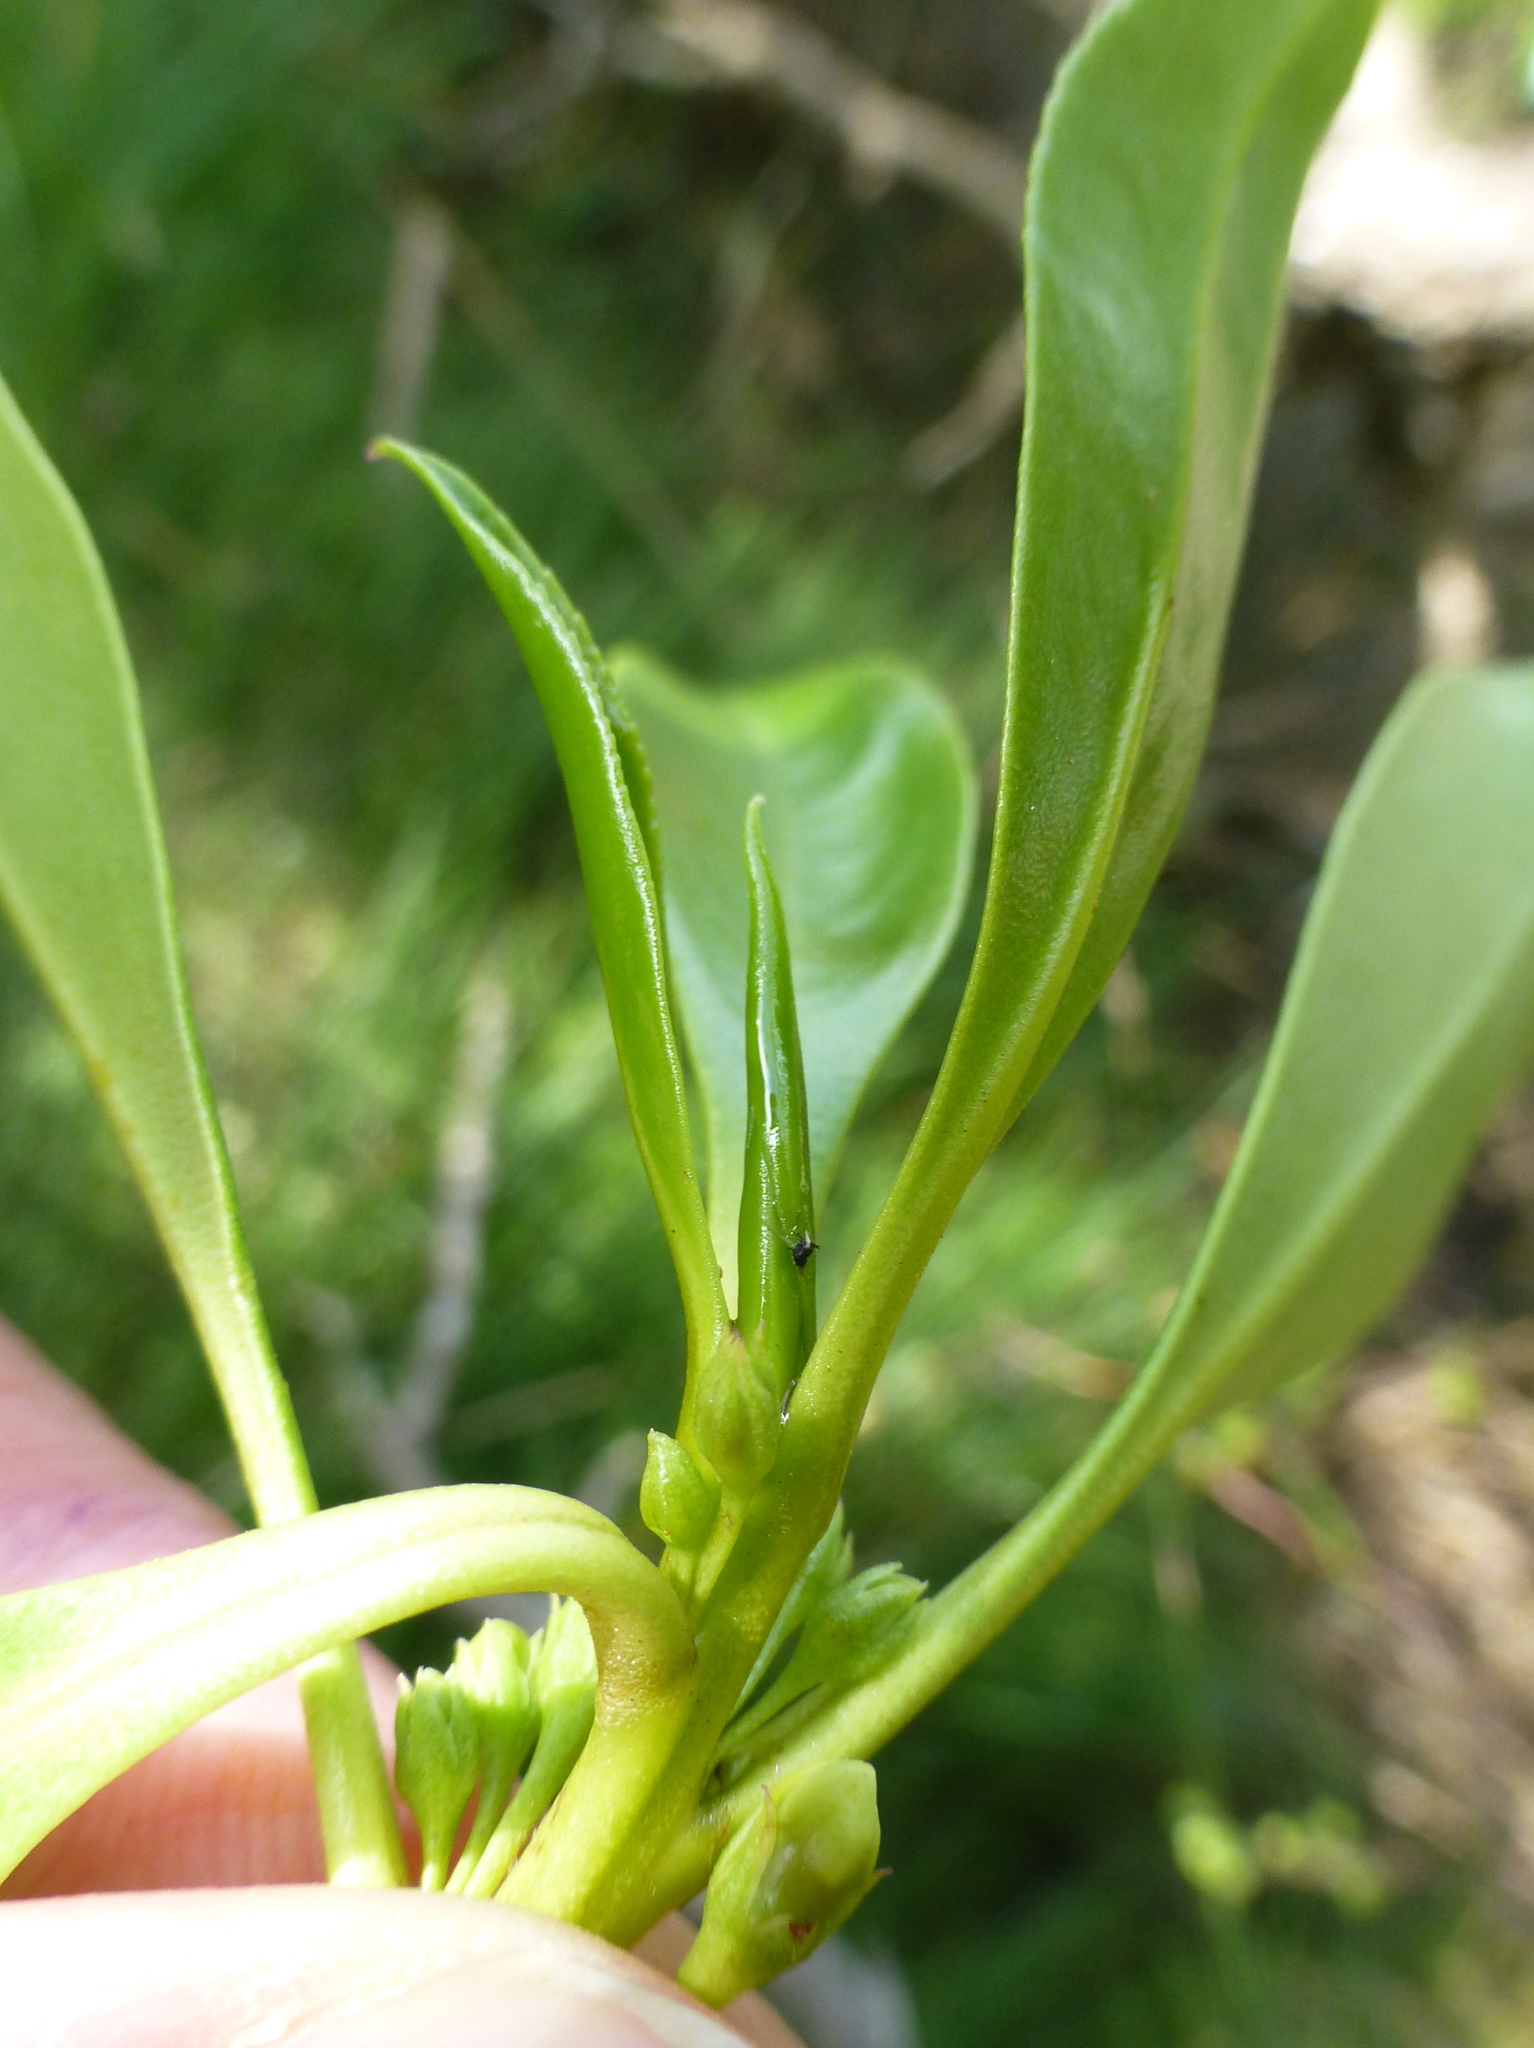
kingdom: Plantae
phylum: Tracheophyta
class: Magnoliopsida
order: Lamiales
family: Scrophulariaceae
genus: Myoporum
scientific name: Myoporum
